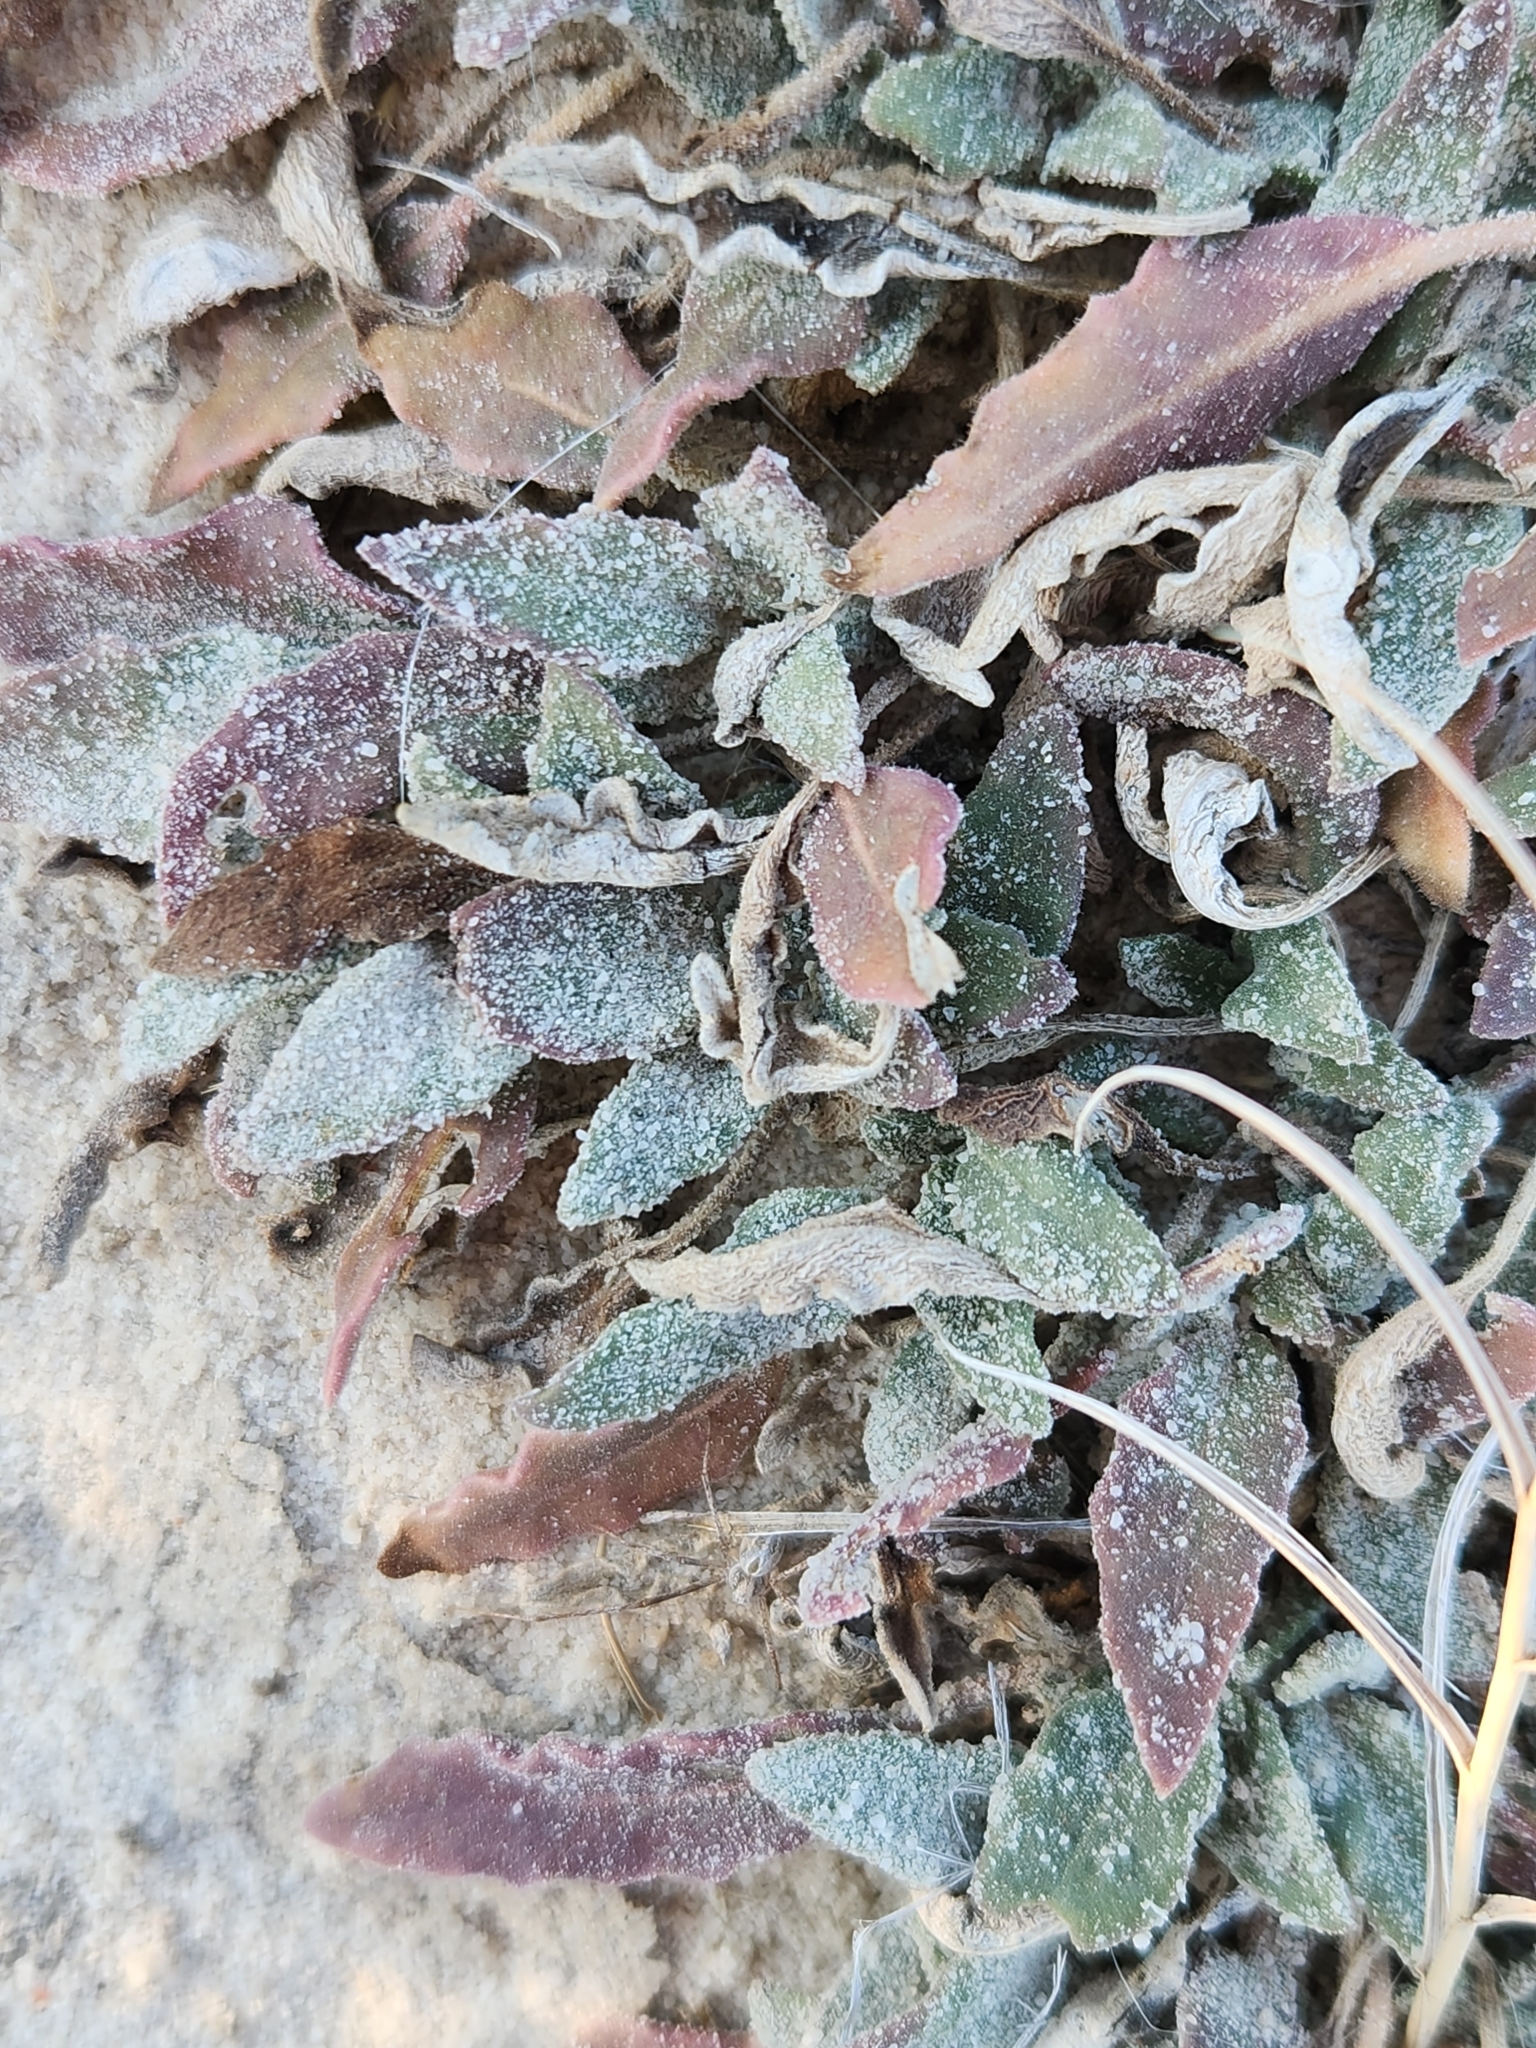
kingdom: Plantae
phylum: Tracheophyta
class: Magnoliopsida
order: Caryophyllales
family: Nyctaginaceae
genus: Abronia
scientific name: Abronia angustifolia
